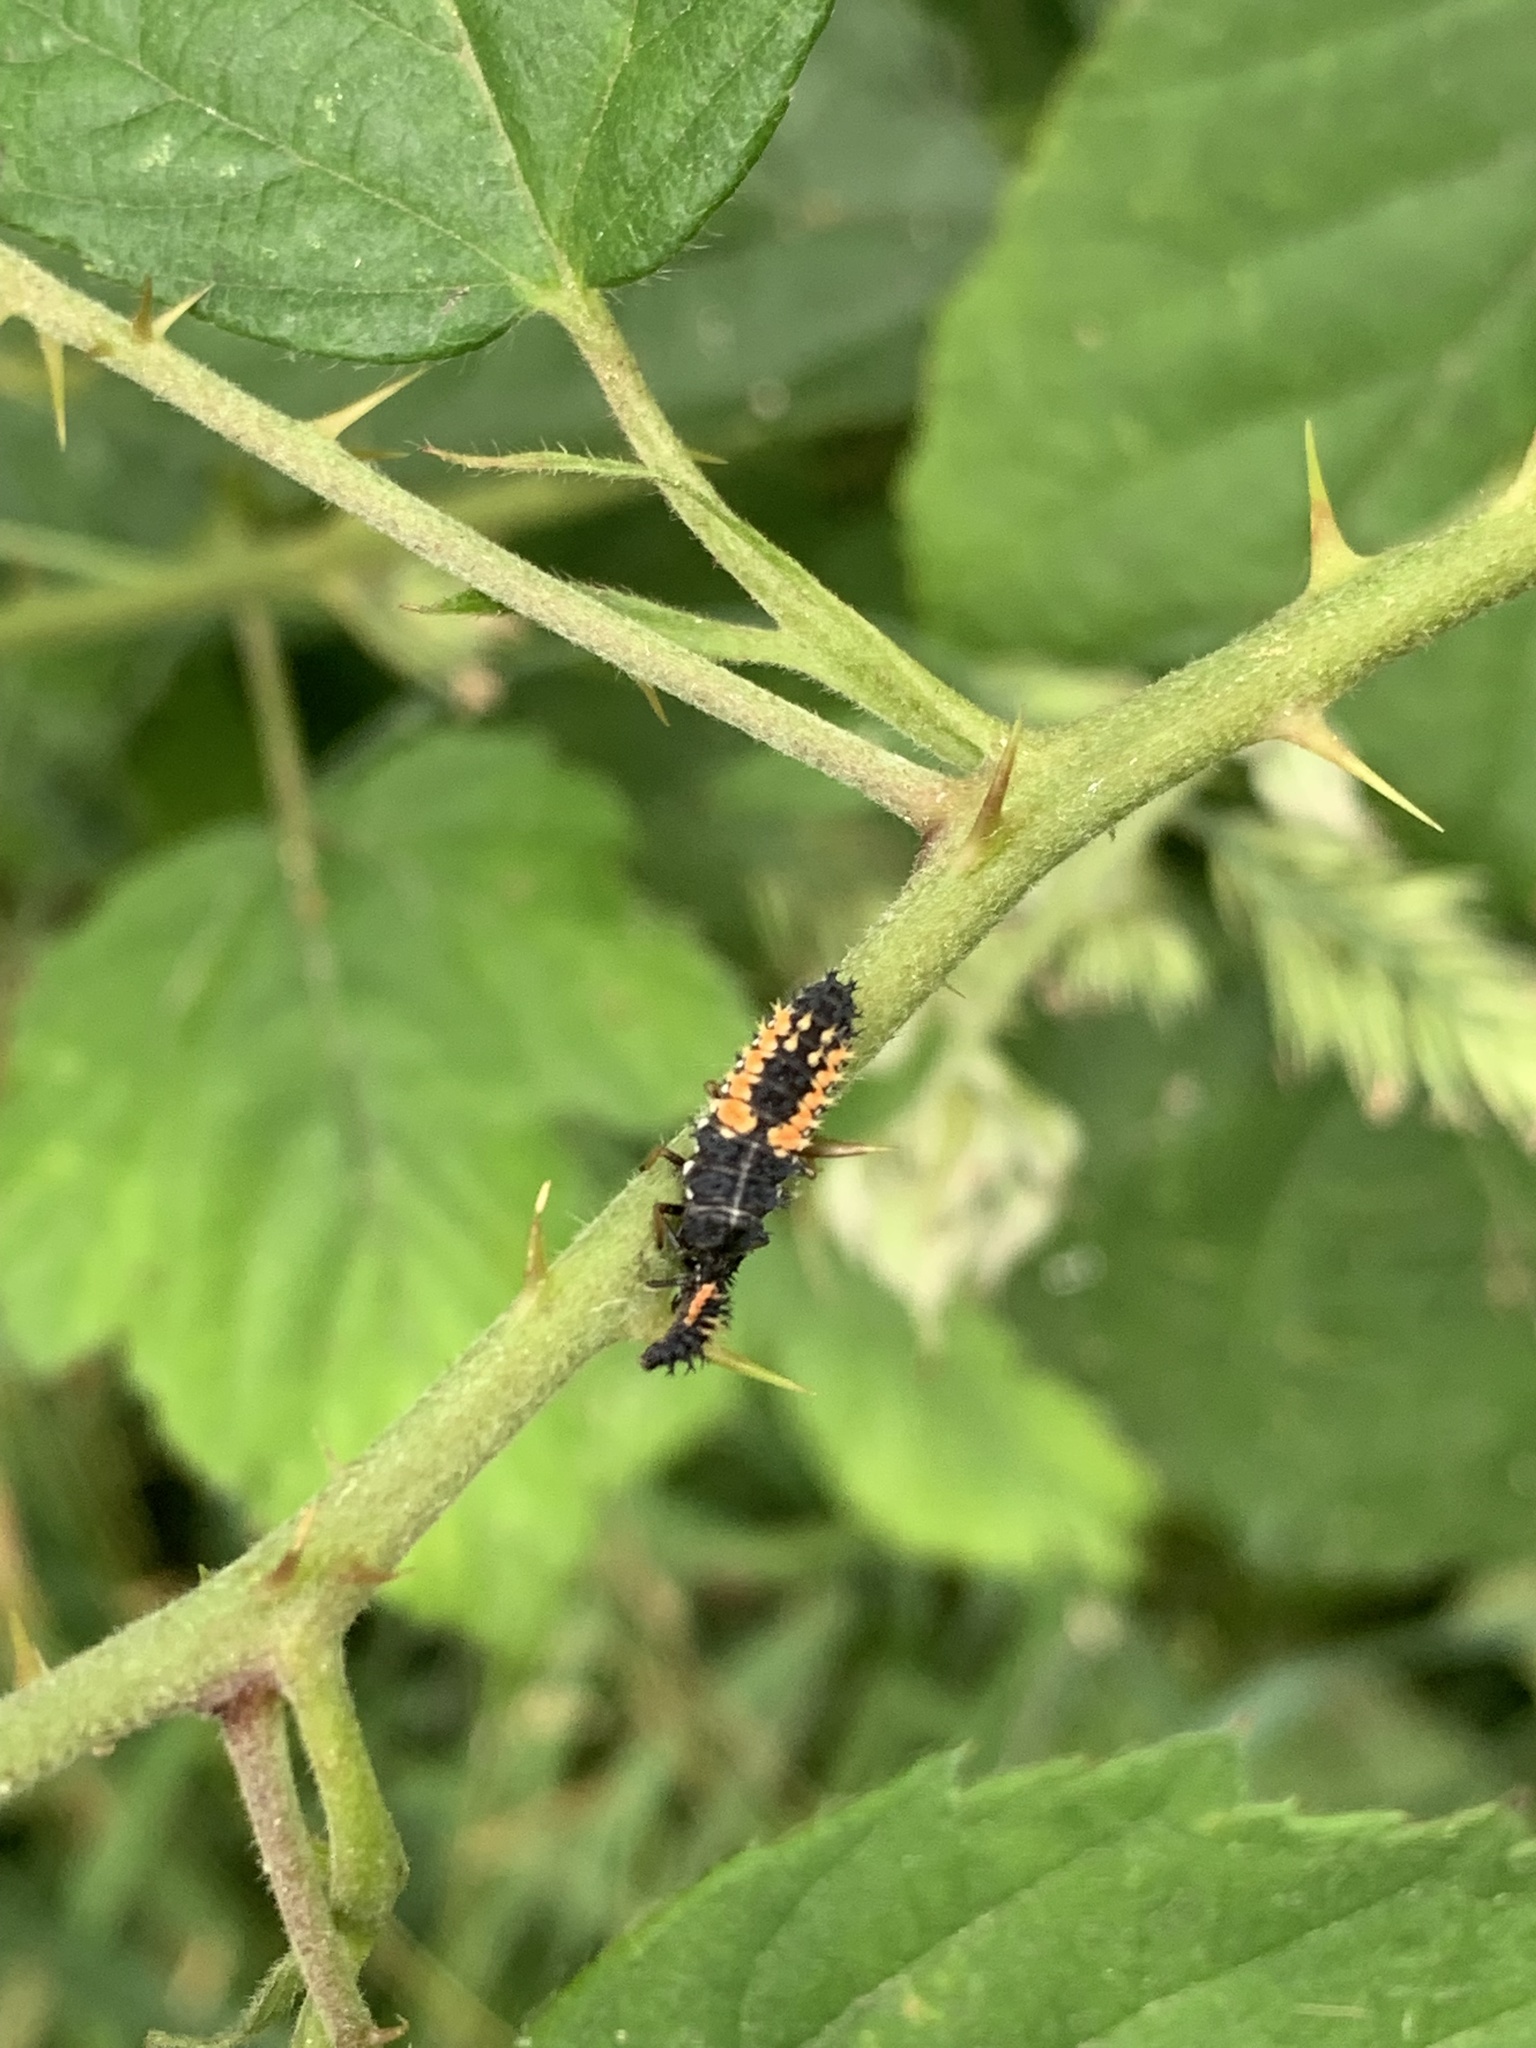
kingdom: Animalia
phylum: Arthropoda
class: Insecta
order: Coleoptera
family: Coccinellidae
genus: Harmonia
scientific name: Harmonia axyridis
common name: Harlequin ladybird
